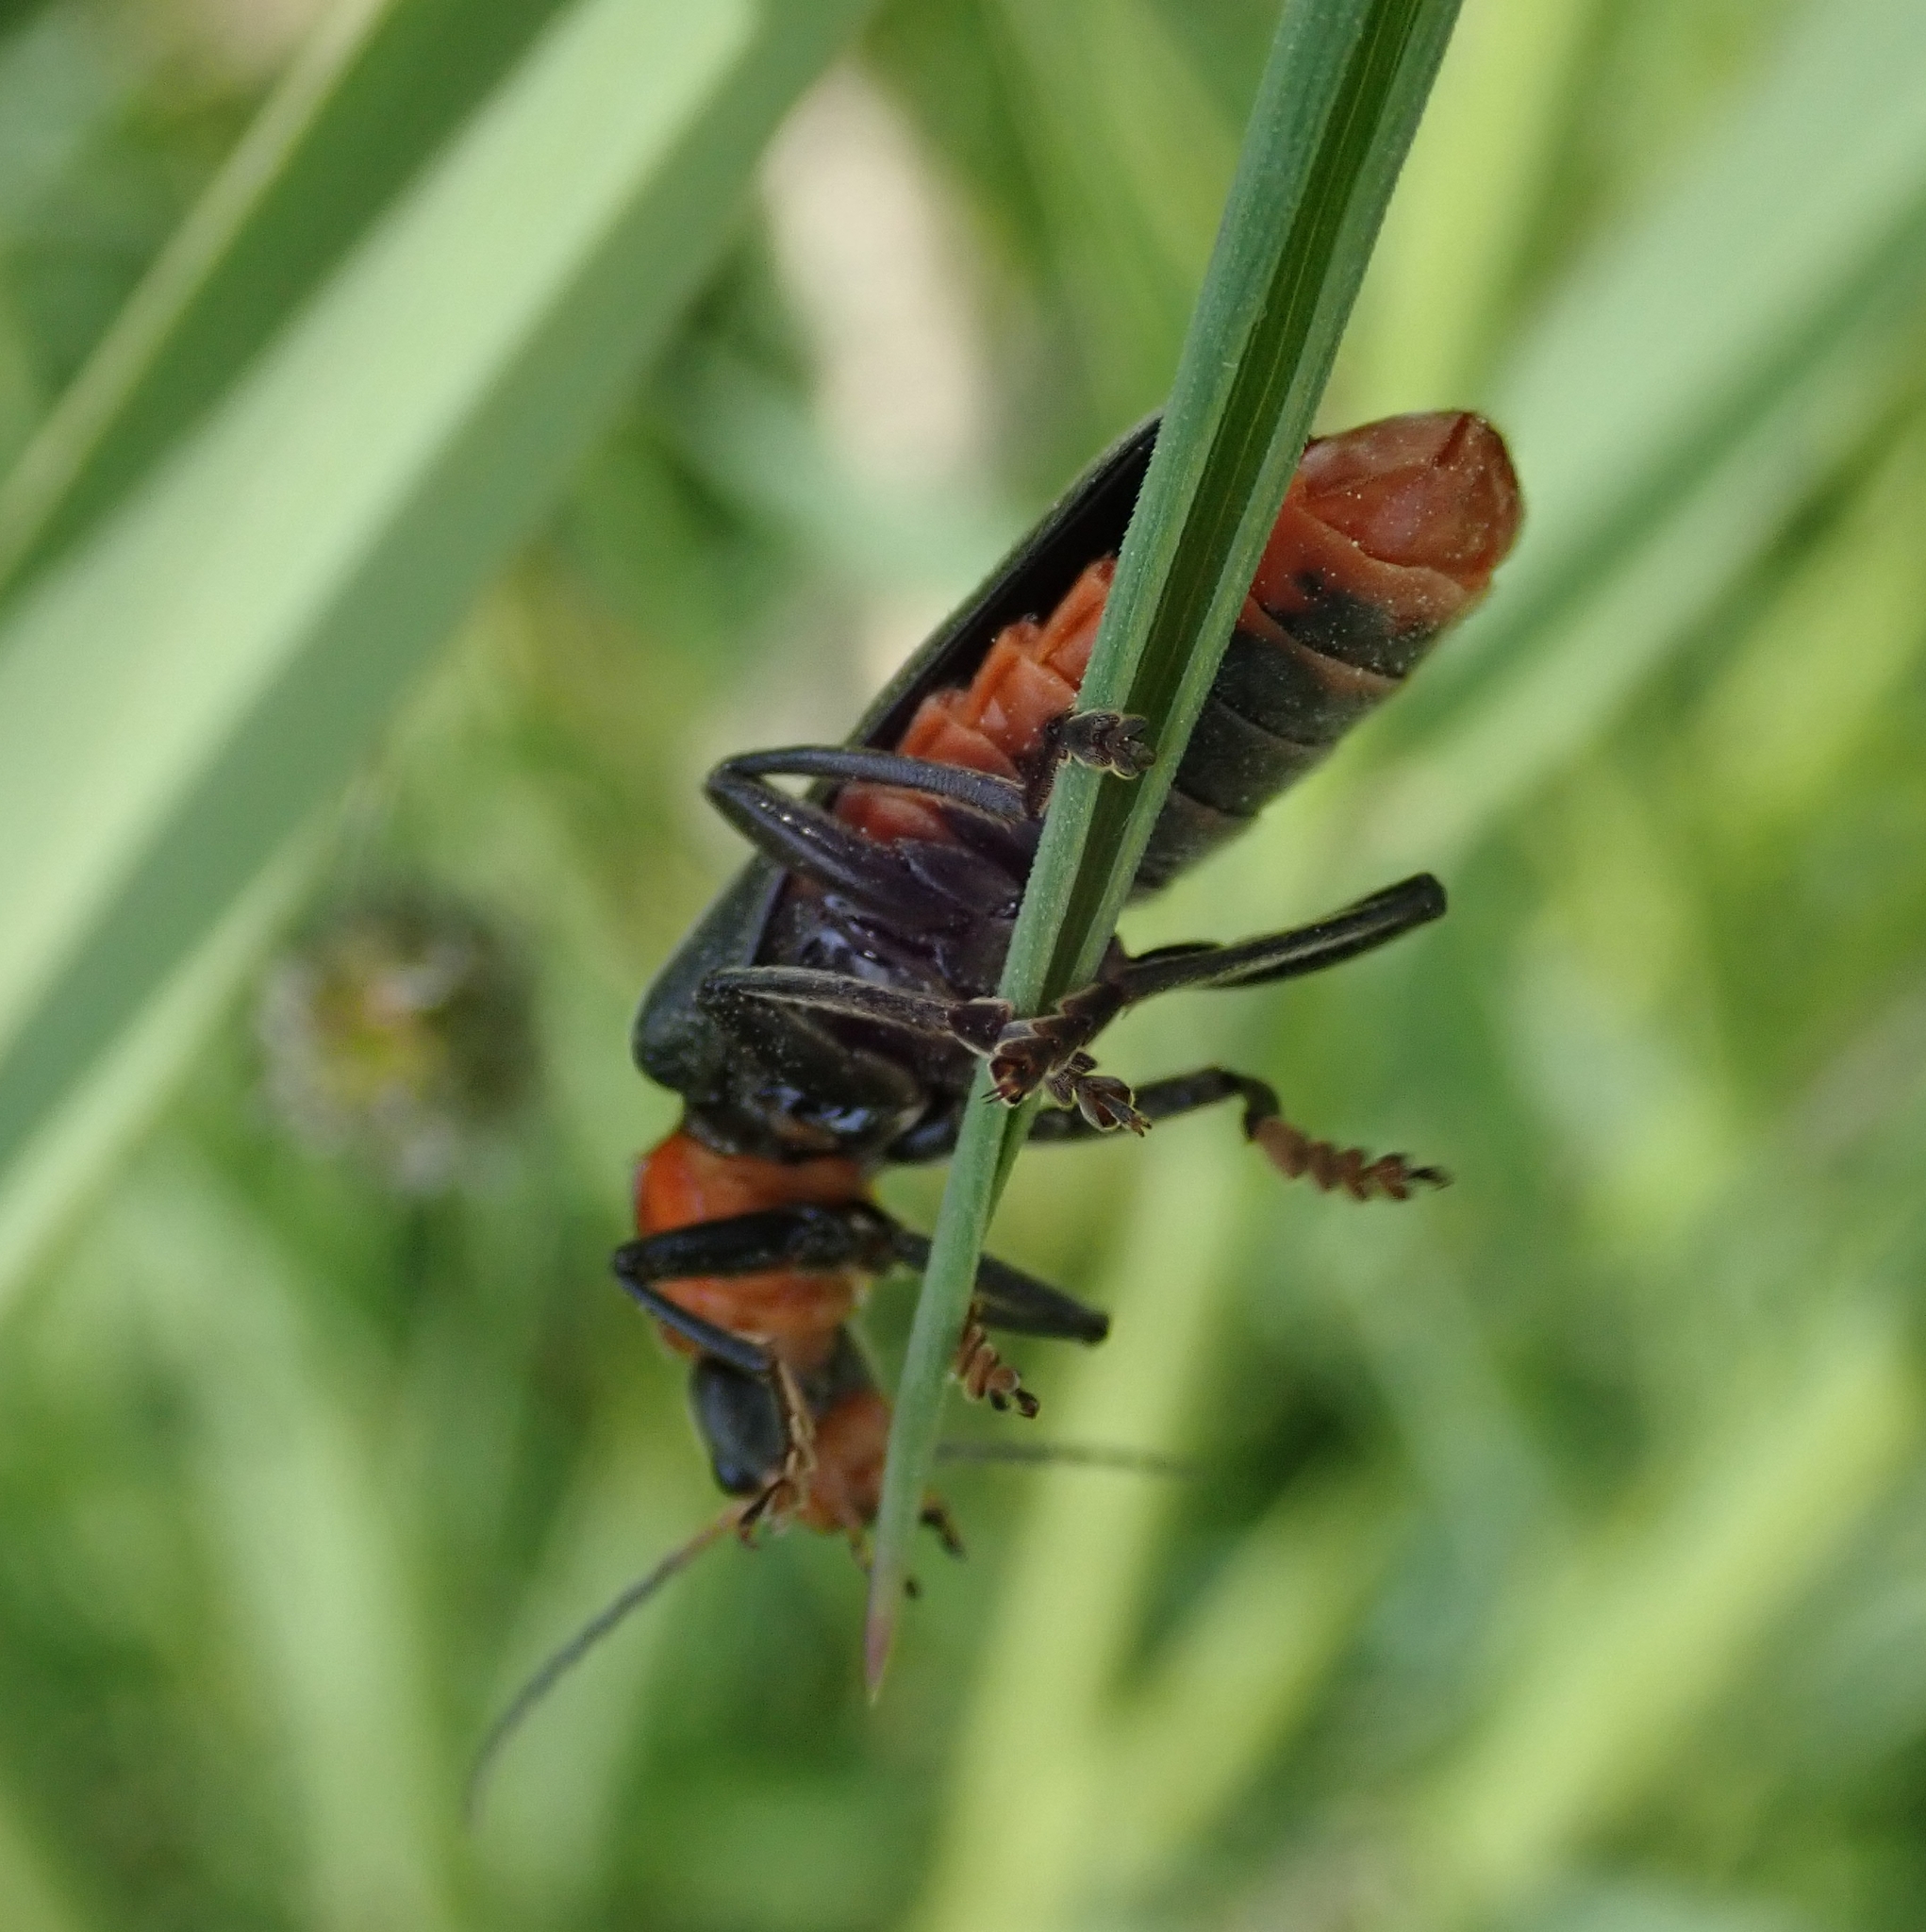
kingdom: Animalia
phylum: Arthropoda
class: Insecta
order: Coleoptera
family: Cantharidae
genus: Cantharis
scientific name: Cantharis fusca
